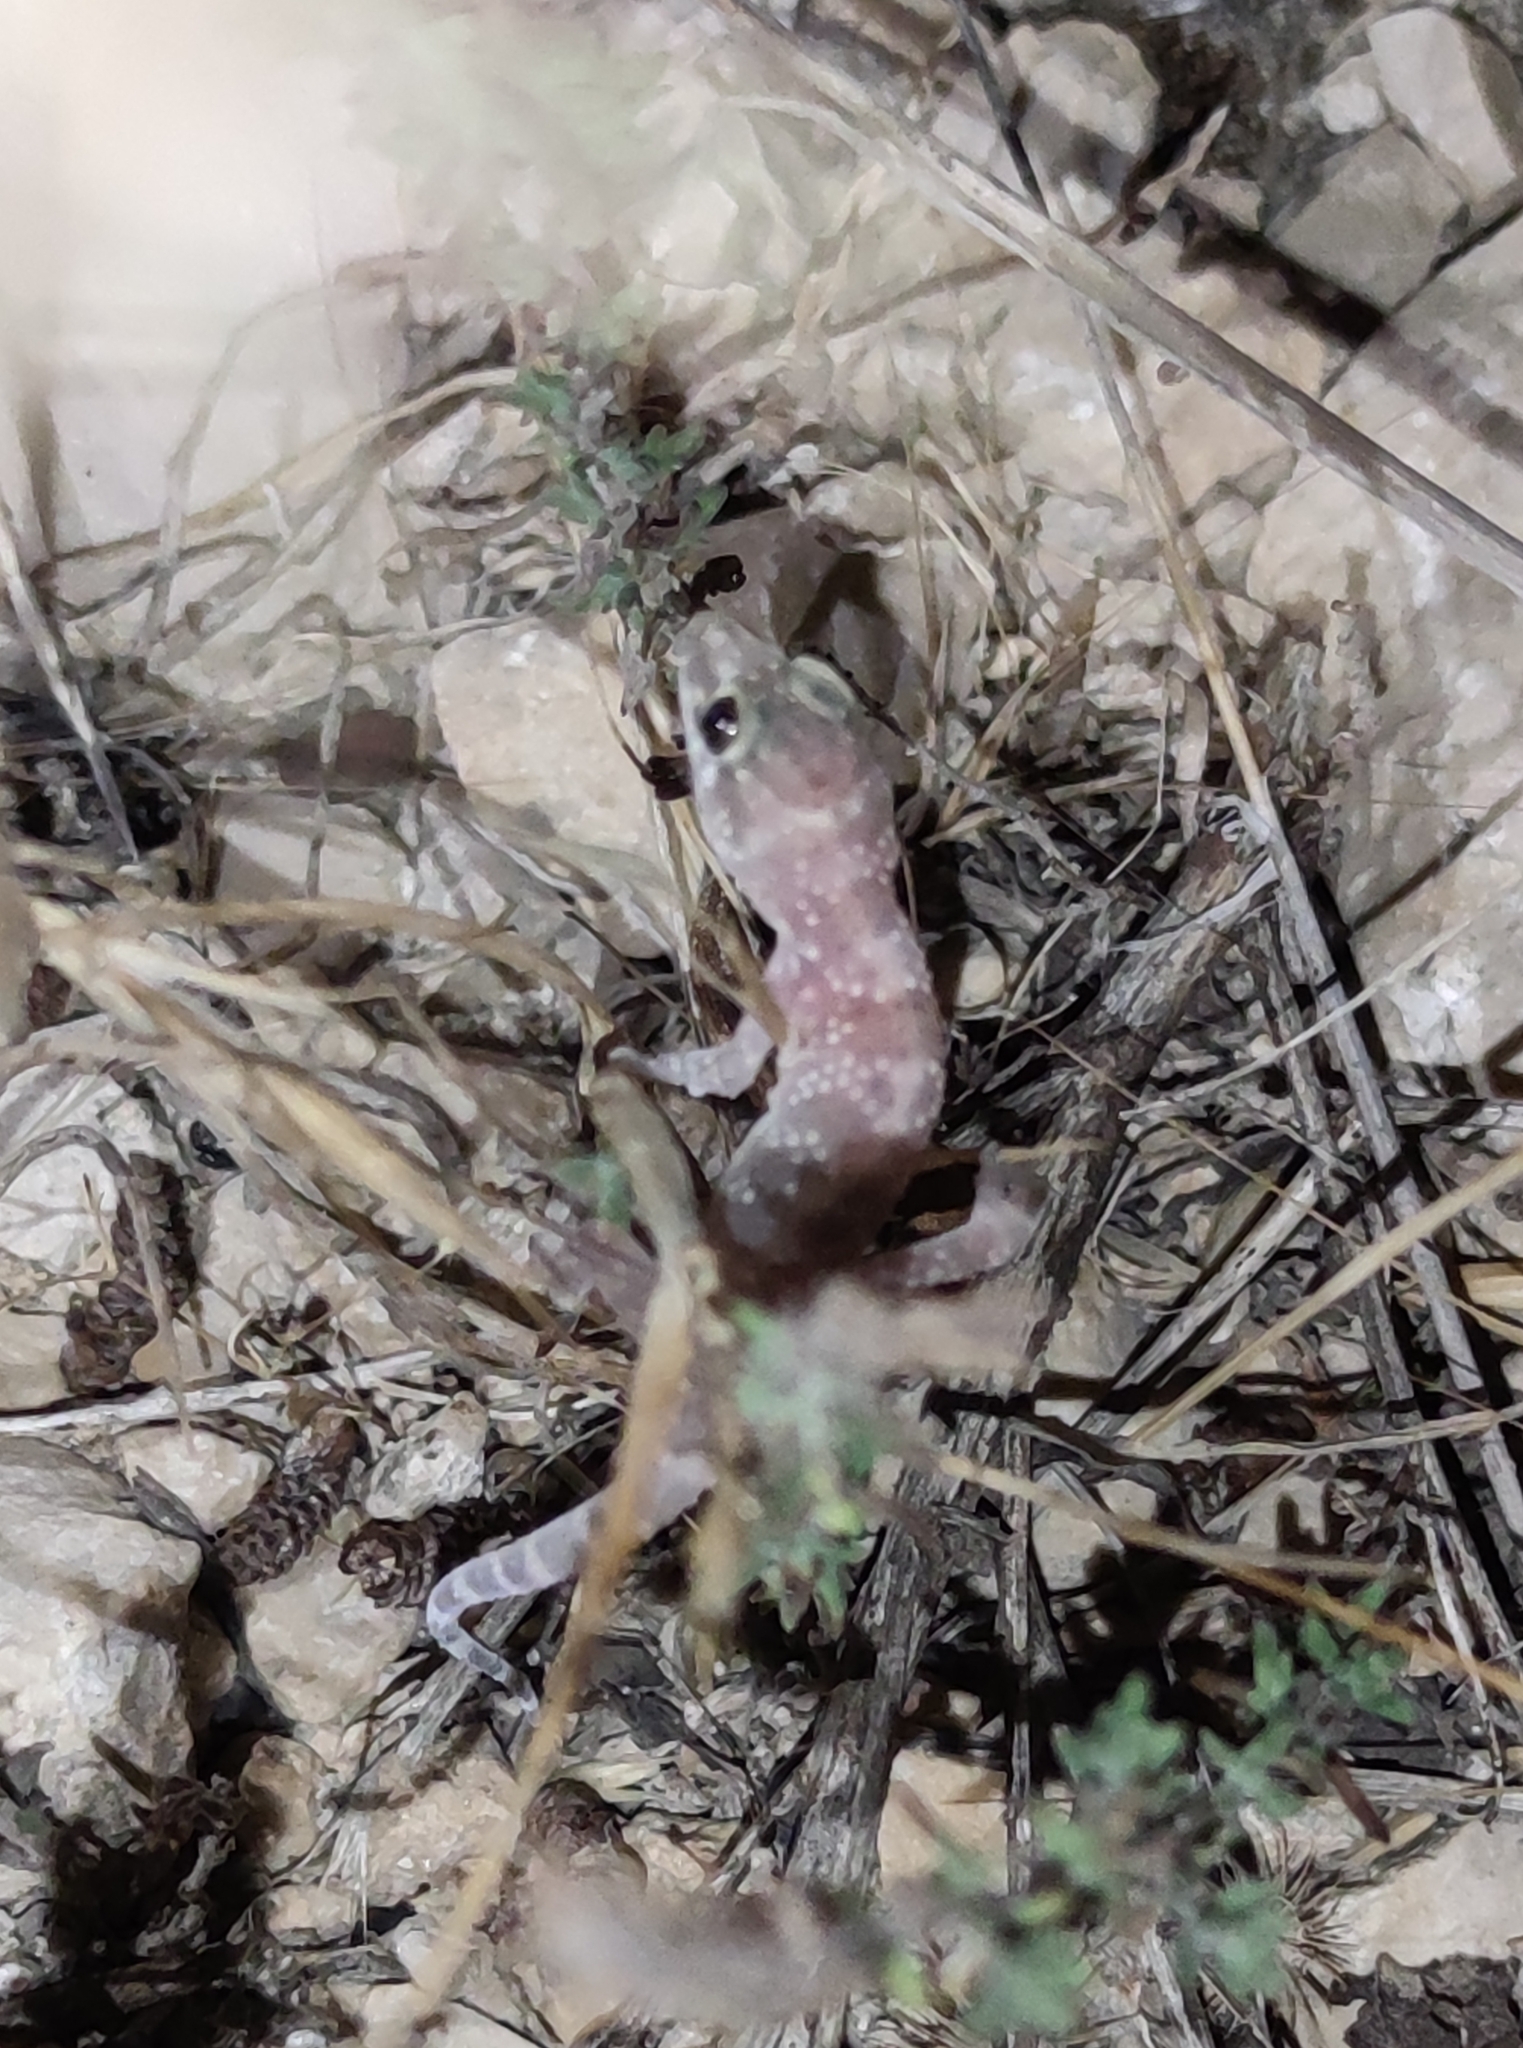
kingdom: Animalia
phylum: Chordata
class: Squamata
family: Gekkonidae
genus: Hemidactylus
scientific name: Hemidactylus turcicus
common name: Turkish gecko
